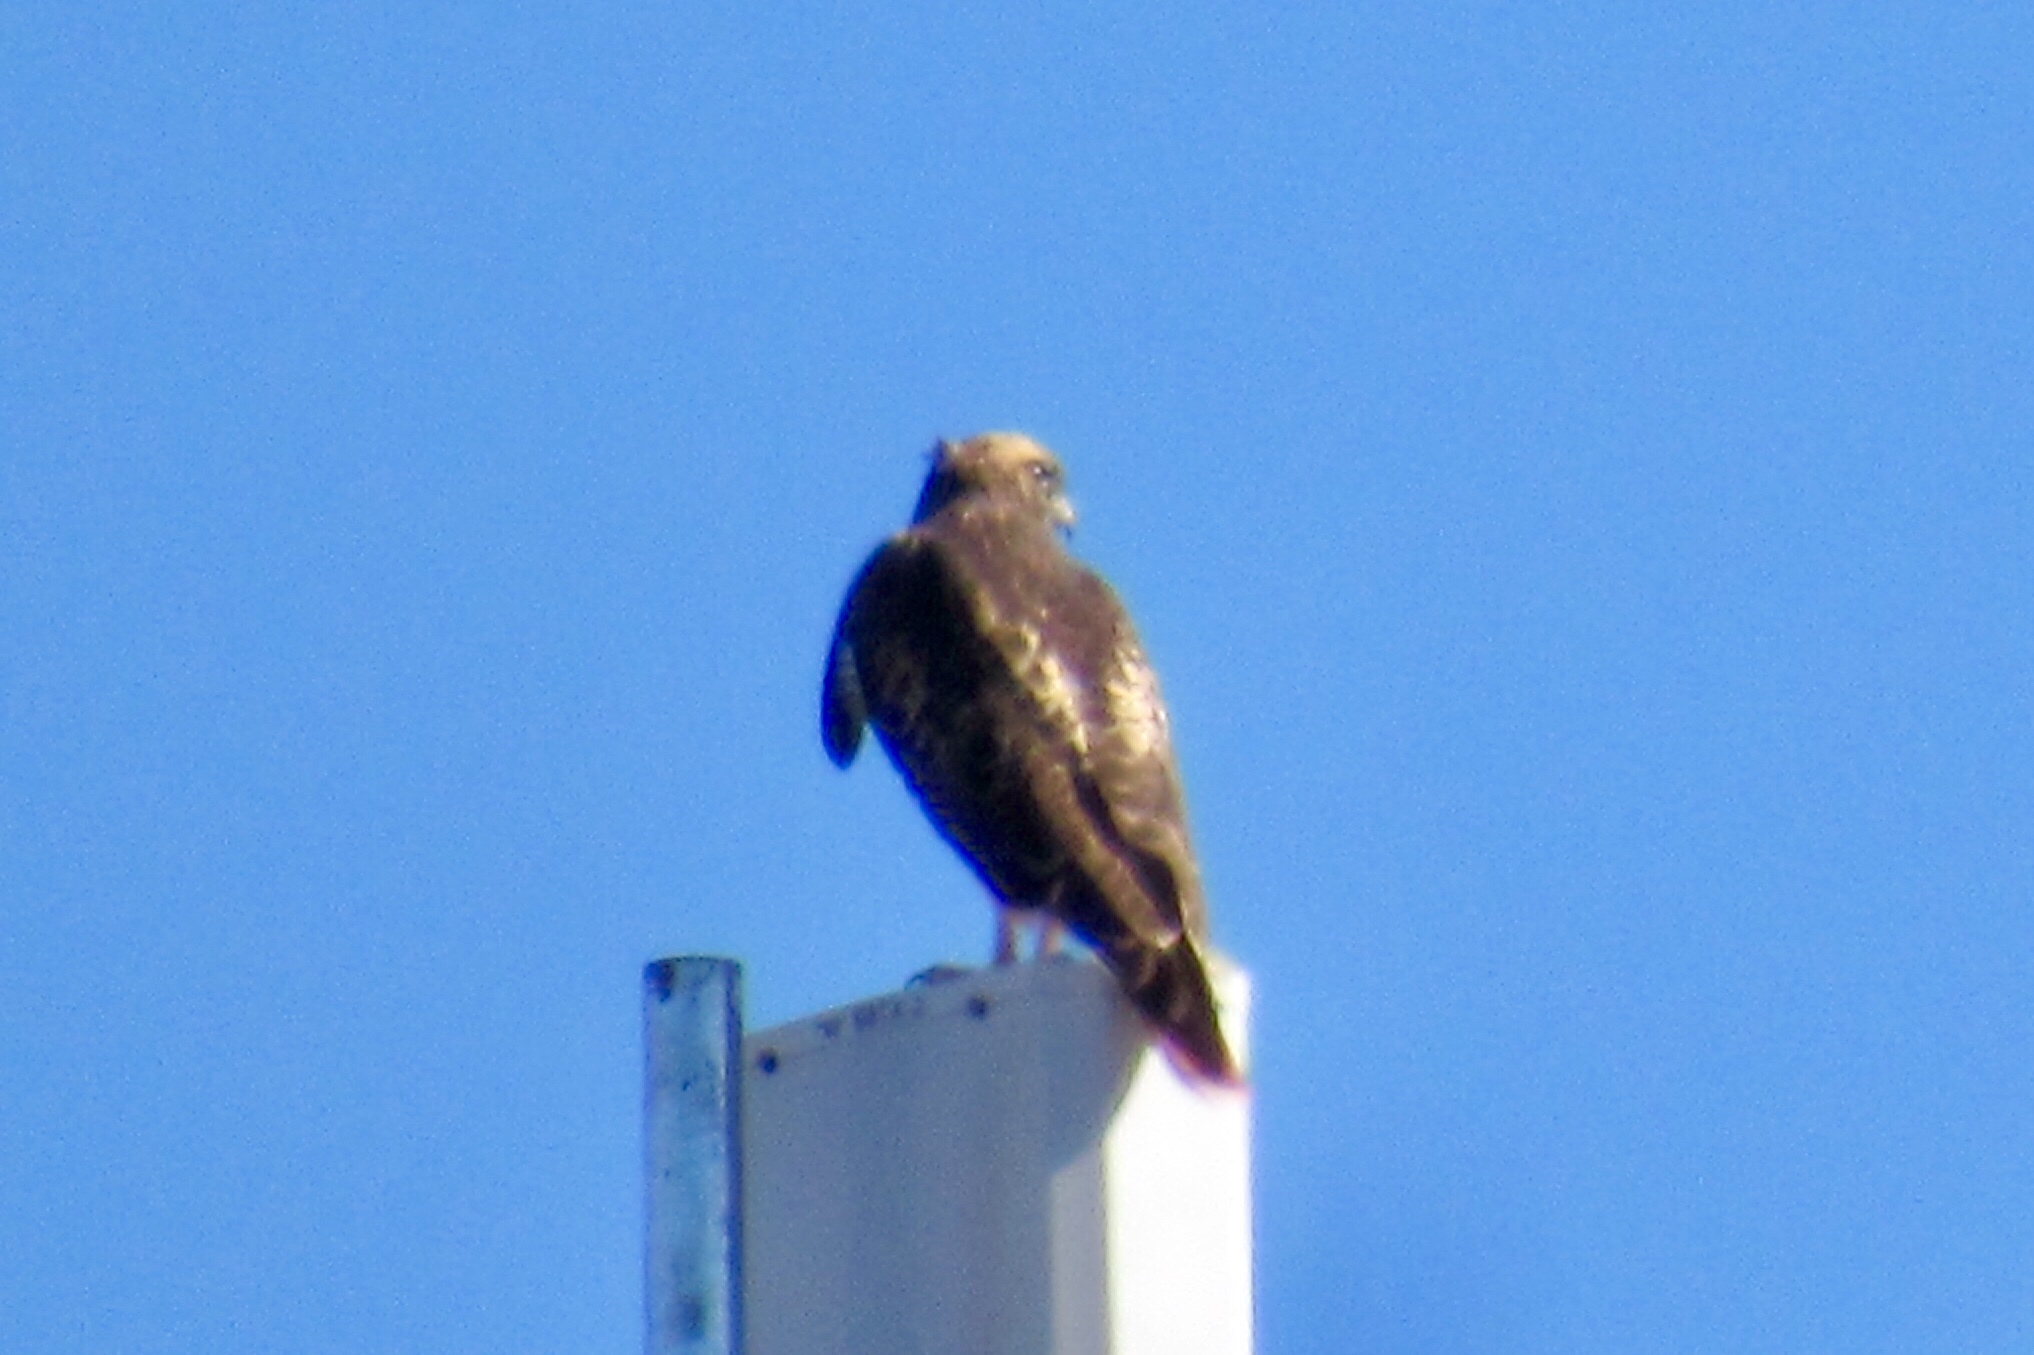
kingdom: Animalia
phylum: Chordata
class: Aves
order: Accipitriformes
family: Accipitridae
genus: Buteo
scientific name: Buteo jamaicensis
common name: Red-tailed hawk
